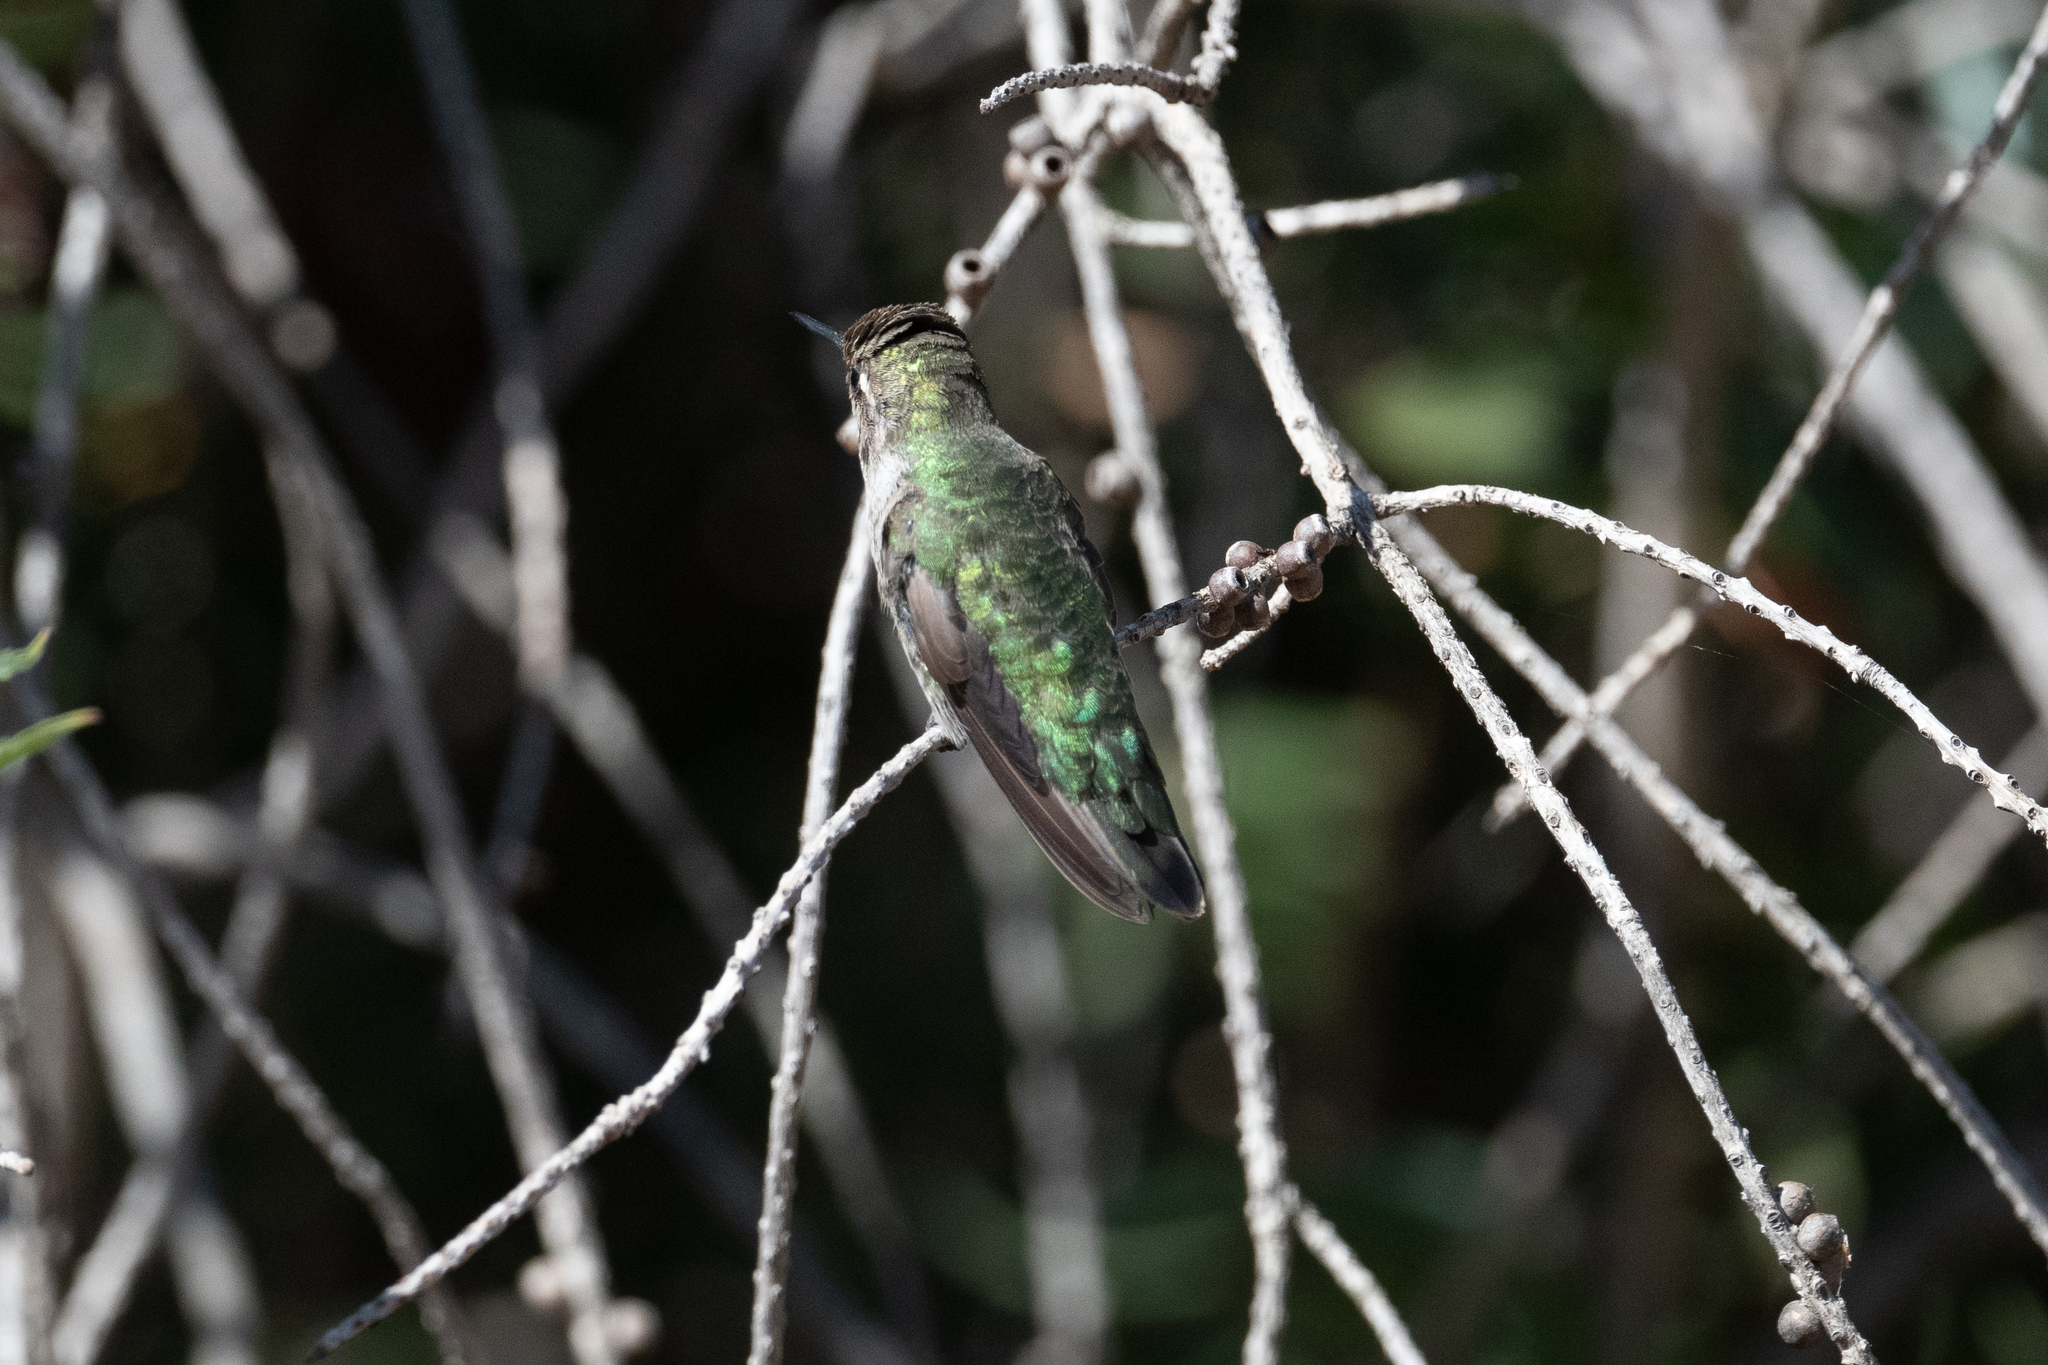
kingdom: Animalia
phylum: Chordata
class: Aves
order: Apodiformes
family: Trochilidae
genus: Calypte
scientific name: Calypte anna
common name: Anna's hummingbird
